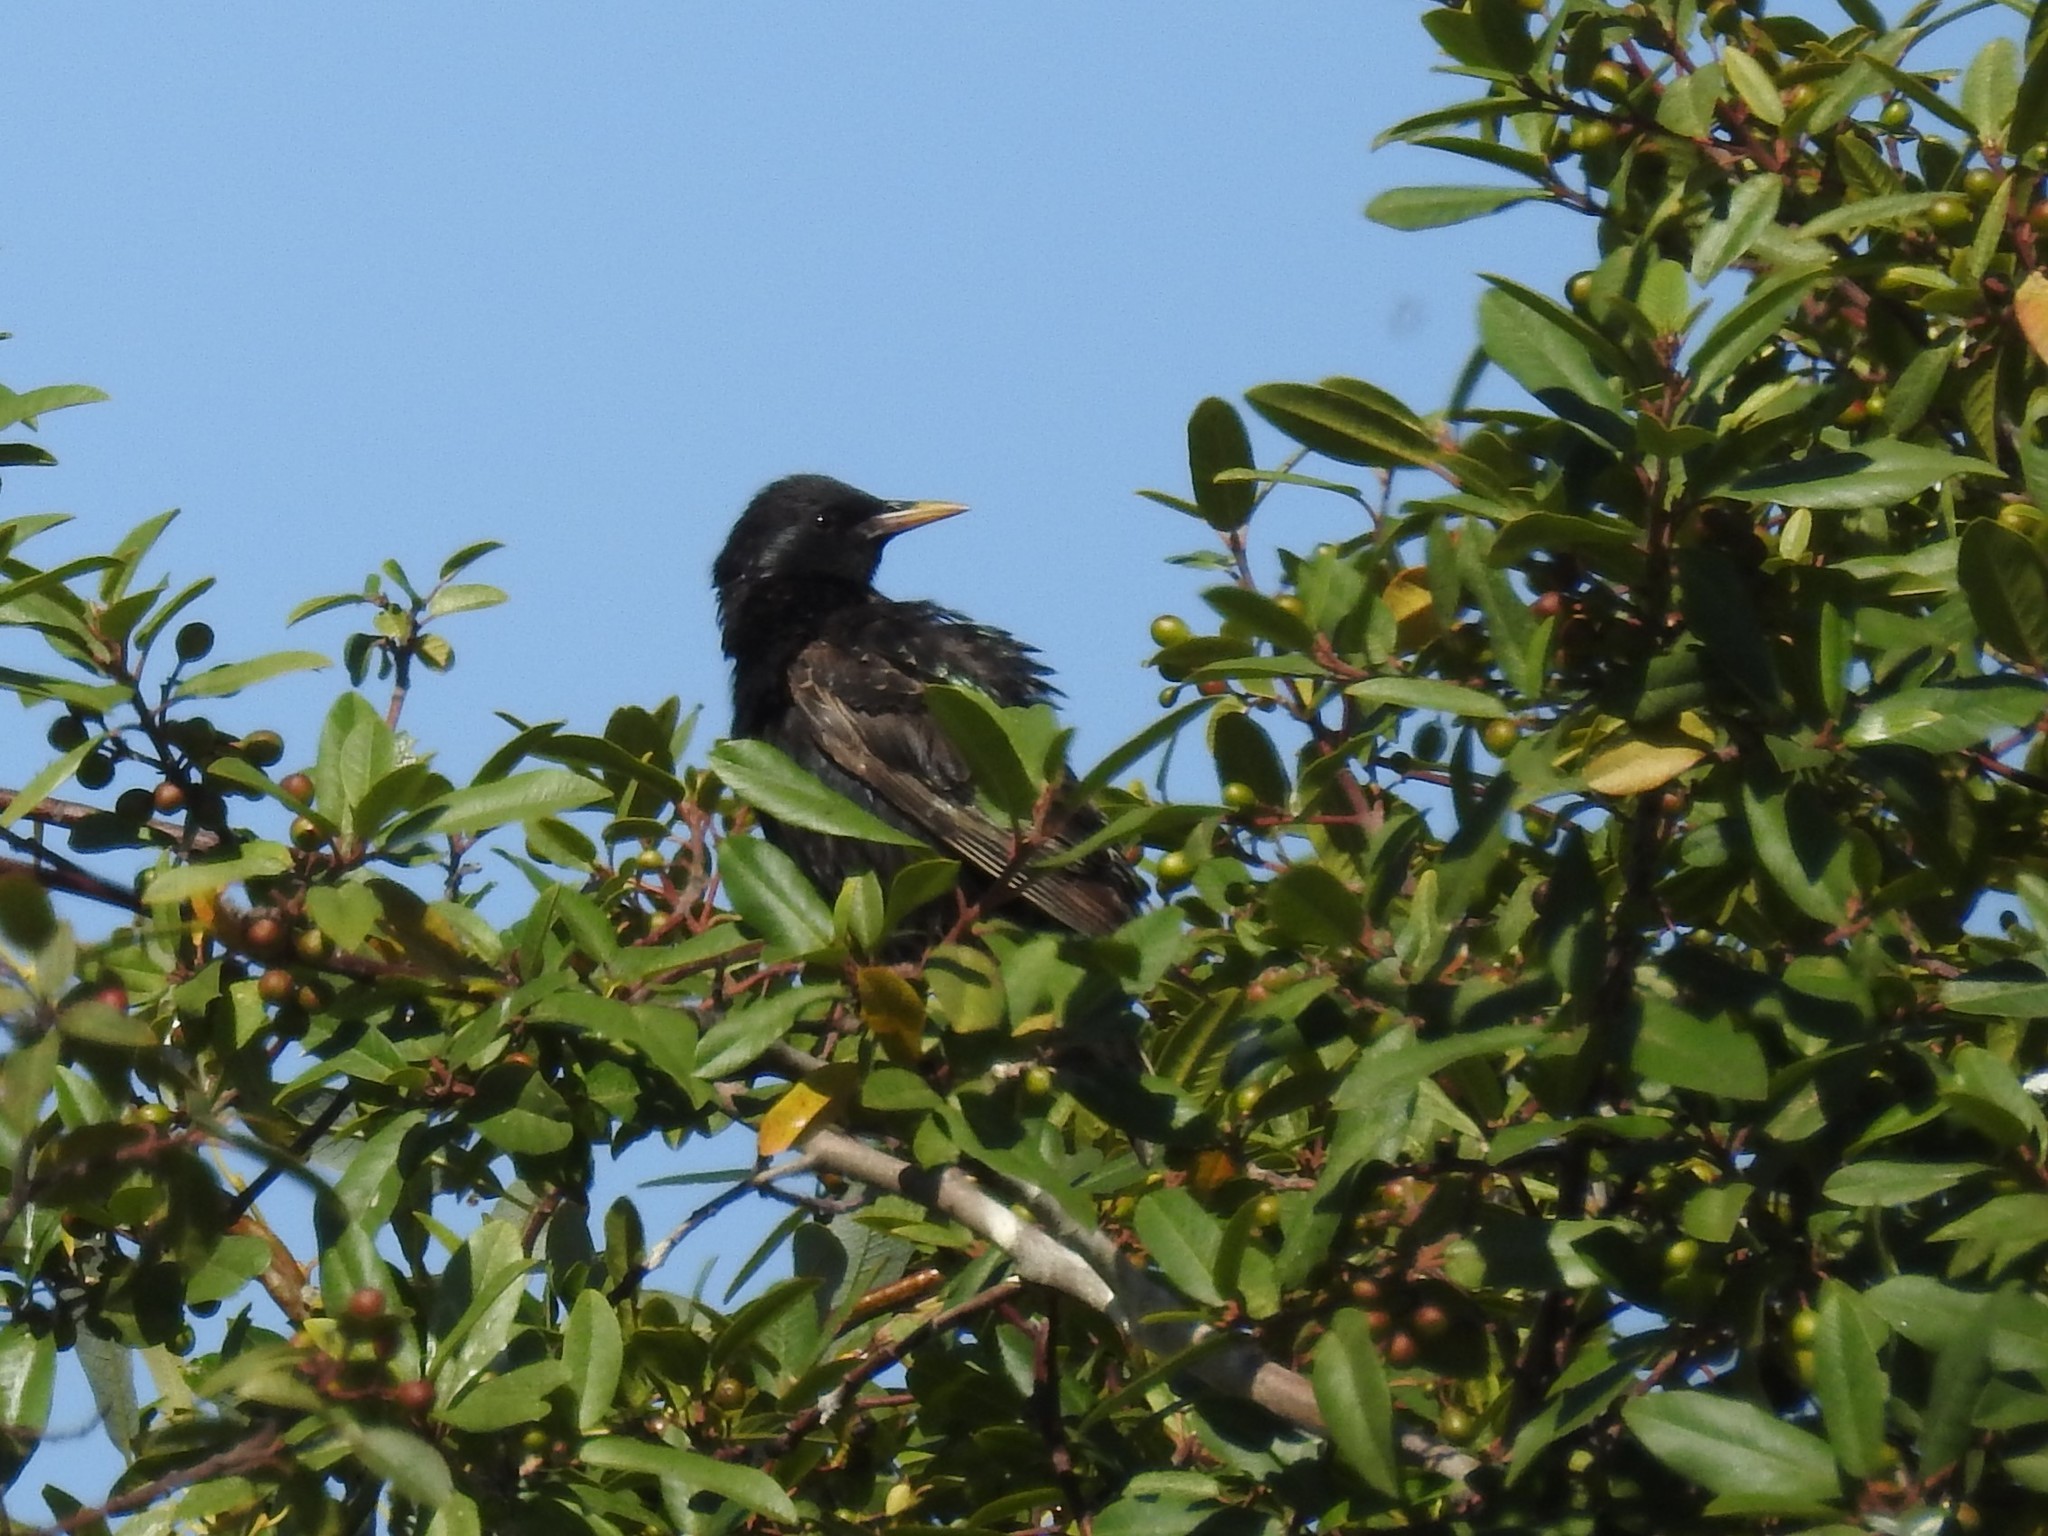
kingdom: Animalia
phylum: Chordata
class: Aves
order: Passeriformes
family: Sturnidae
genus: Sturnus
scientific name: Sturnus vulgaris
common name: Common starling
